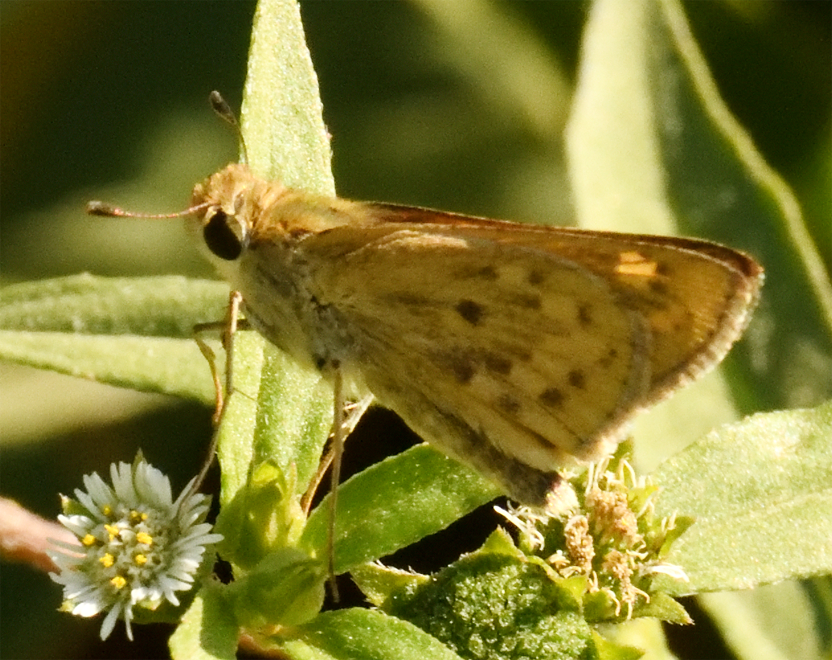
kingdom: Animalia
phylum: Arthropoda
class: Insecta
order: Lepidoptera
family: Hesperiidae
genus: Hylephila
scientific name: Hylephila phyleus
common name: Fiery skipper
